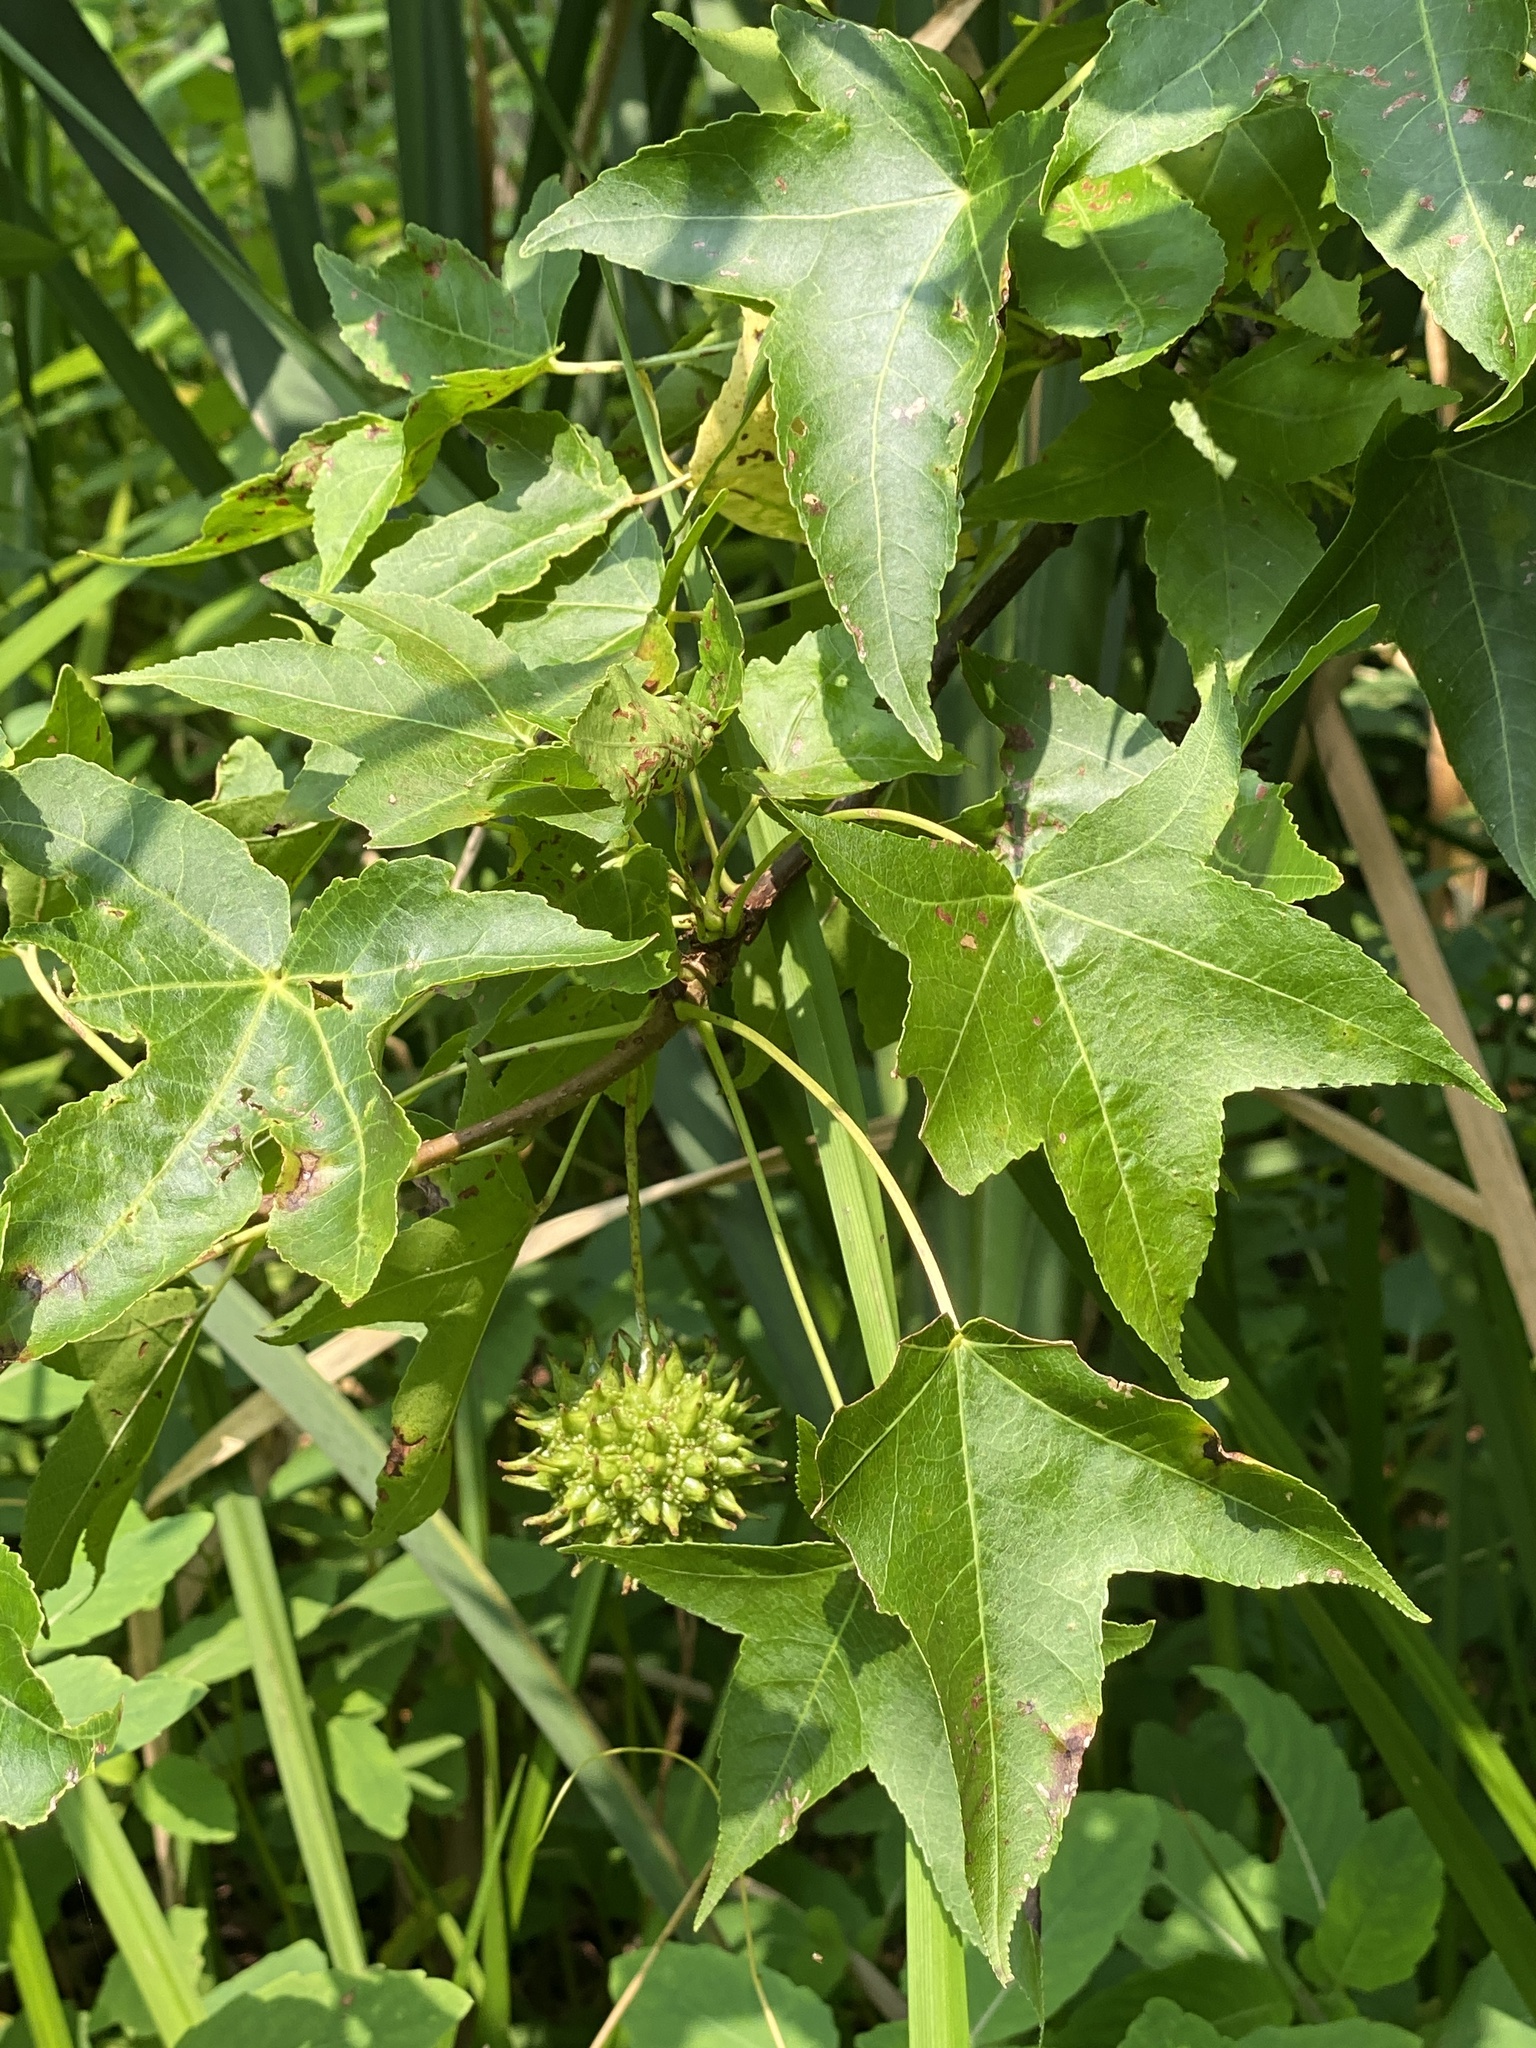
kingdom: Plantae
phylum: Tracheophyta
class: Magnoliopsida
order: Saxifragales
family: Altingiaceae
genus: Liquidambar
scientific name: Liquidambar styraciflua
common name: Sweet gum
